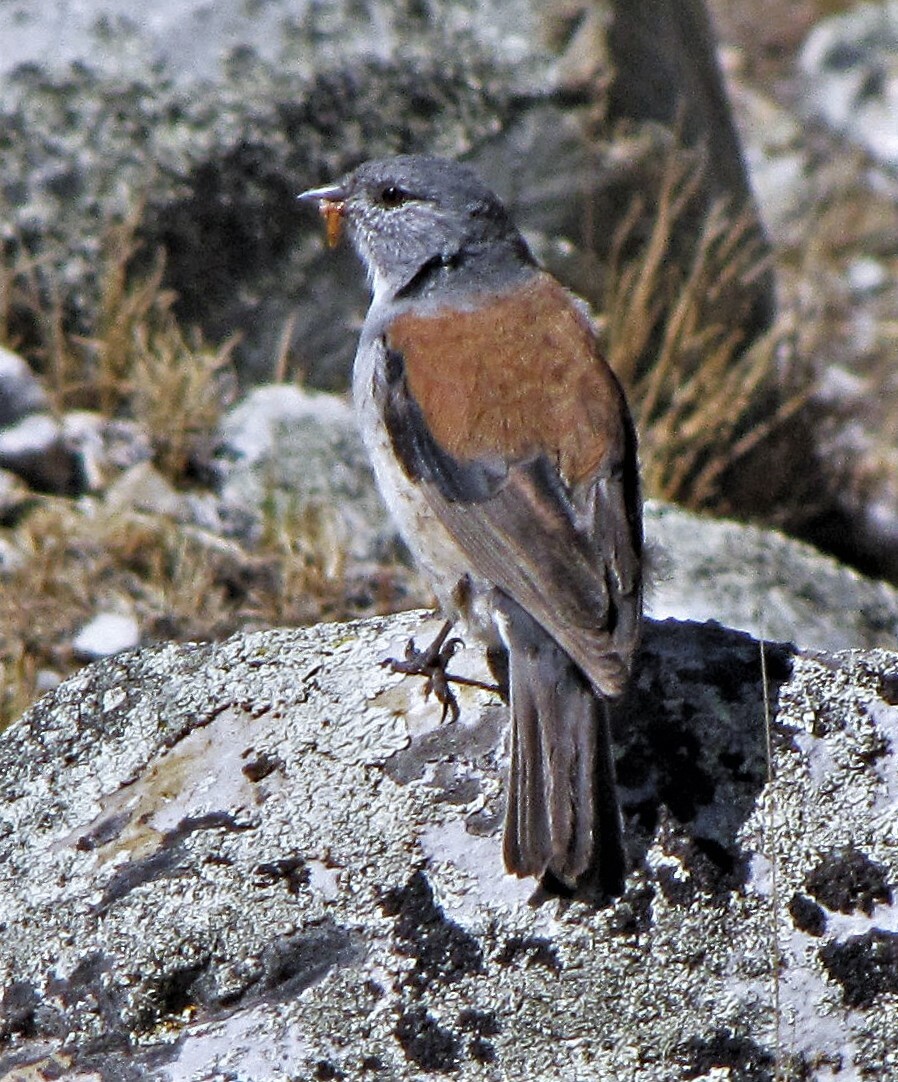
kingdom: Animalia
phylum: Chordata
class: Aves
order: Passeriformes
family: Thraupidae
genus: Idiopsar
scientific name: Idiopsar dorsalis
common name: Red-backed sierra finch
